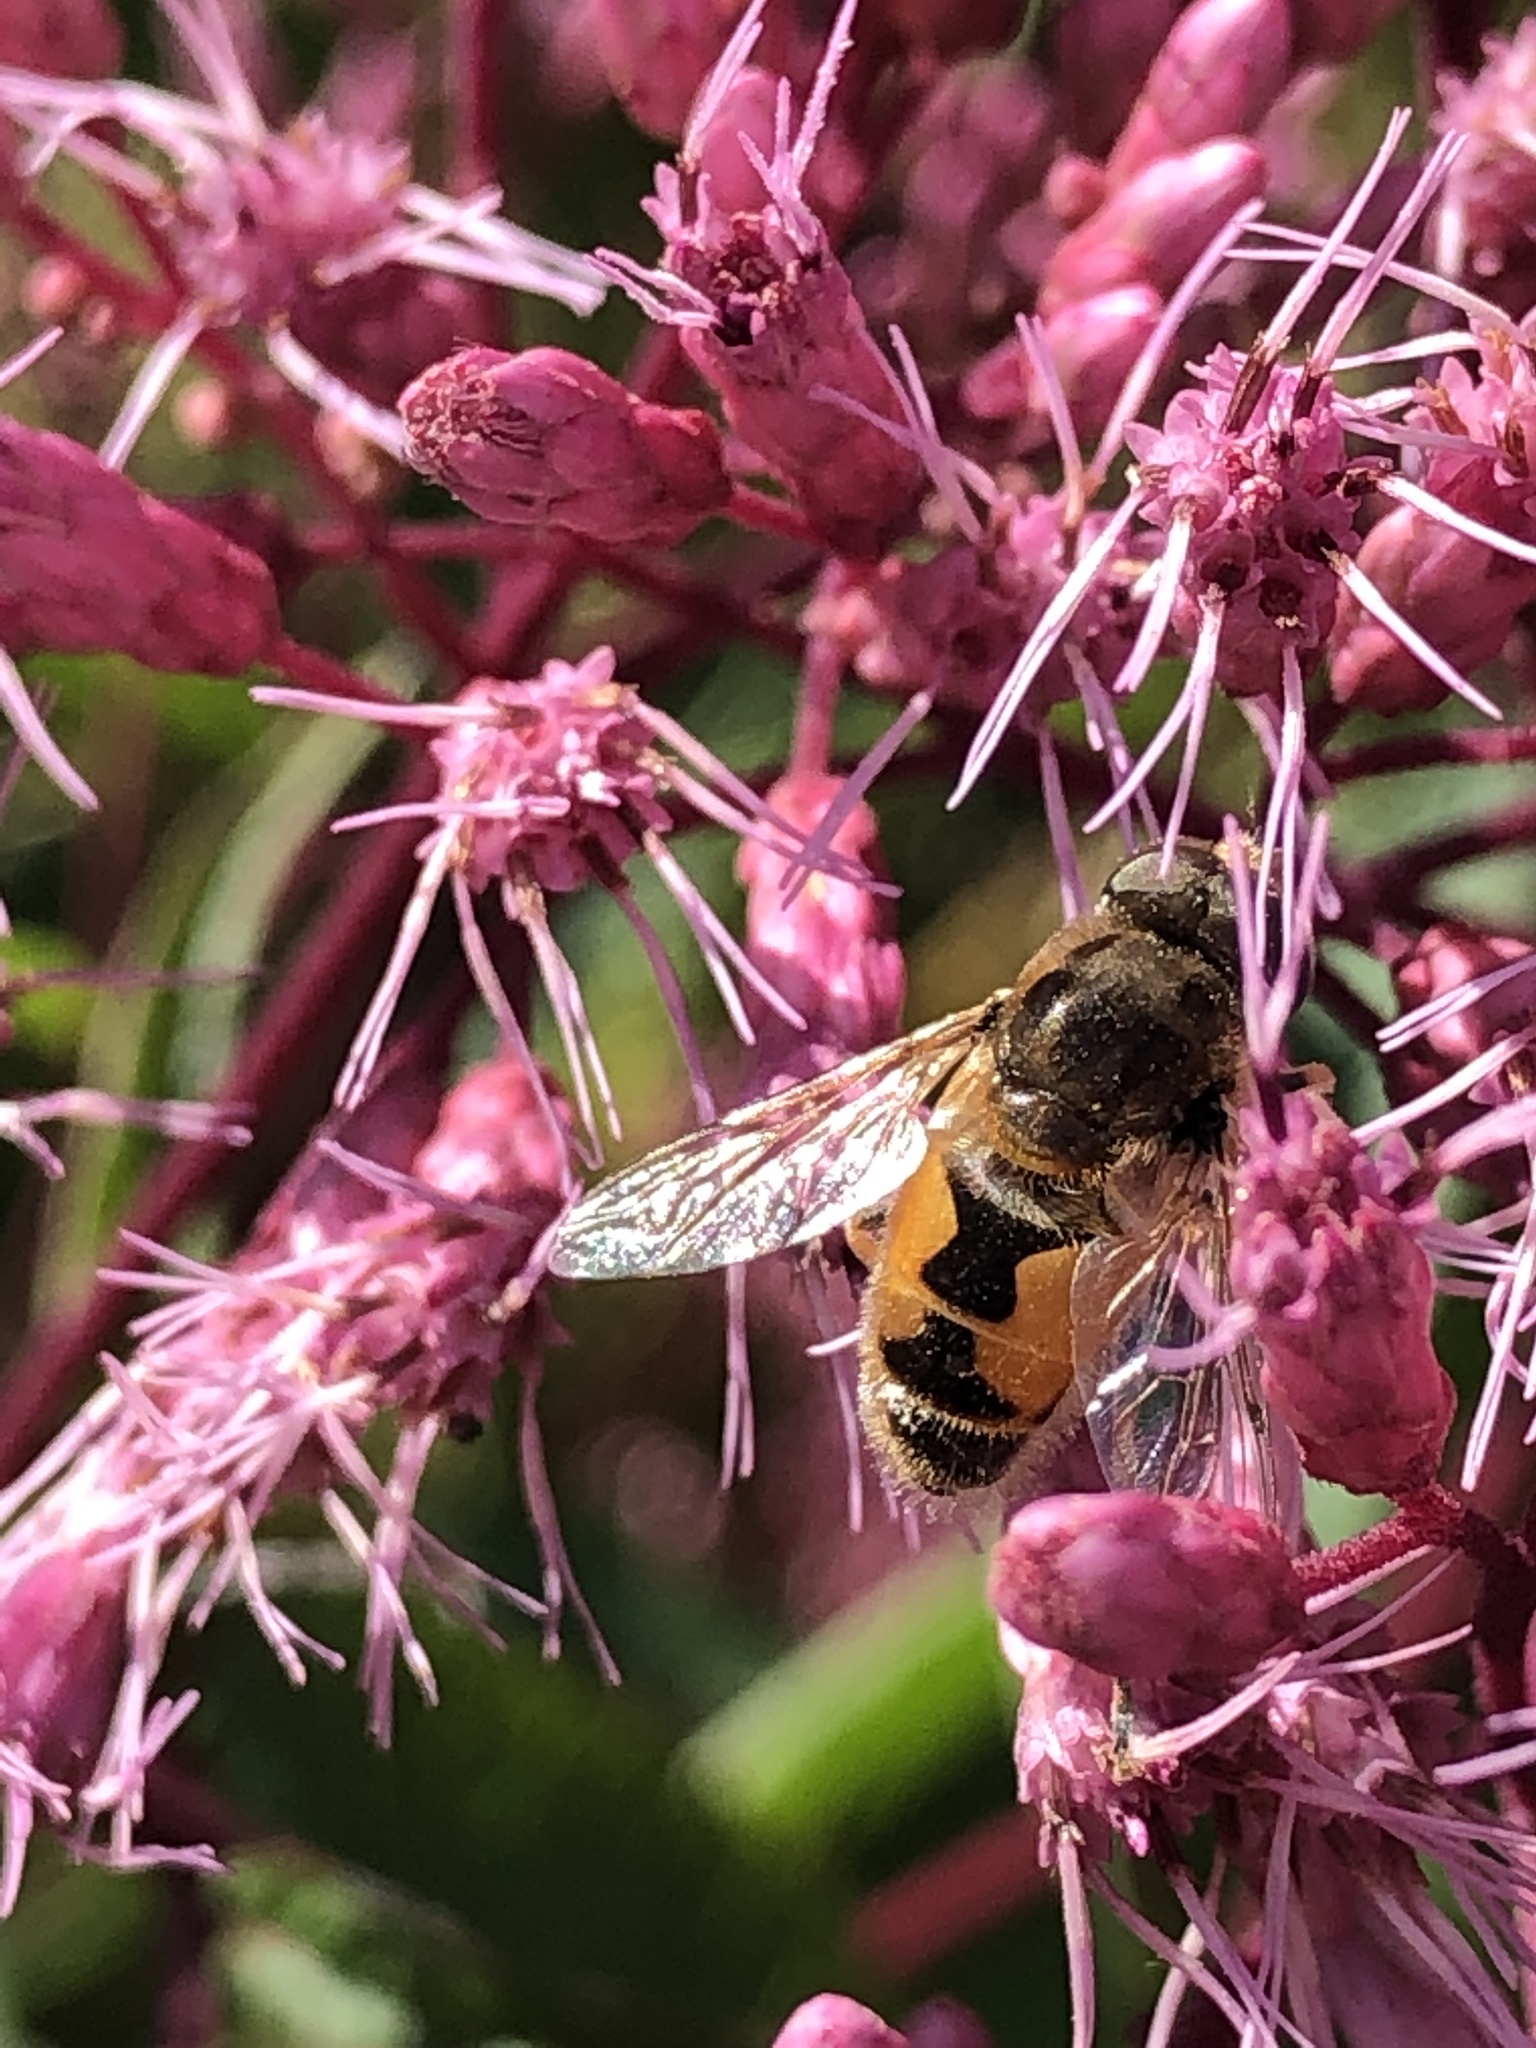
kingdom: Animalia
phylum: Arthropoda
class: Insecta
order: Diptera
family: Syrphidae
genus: Eristalis
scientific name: Eristalis arbustorum
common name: Hover fly
